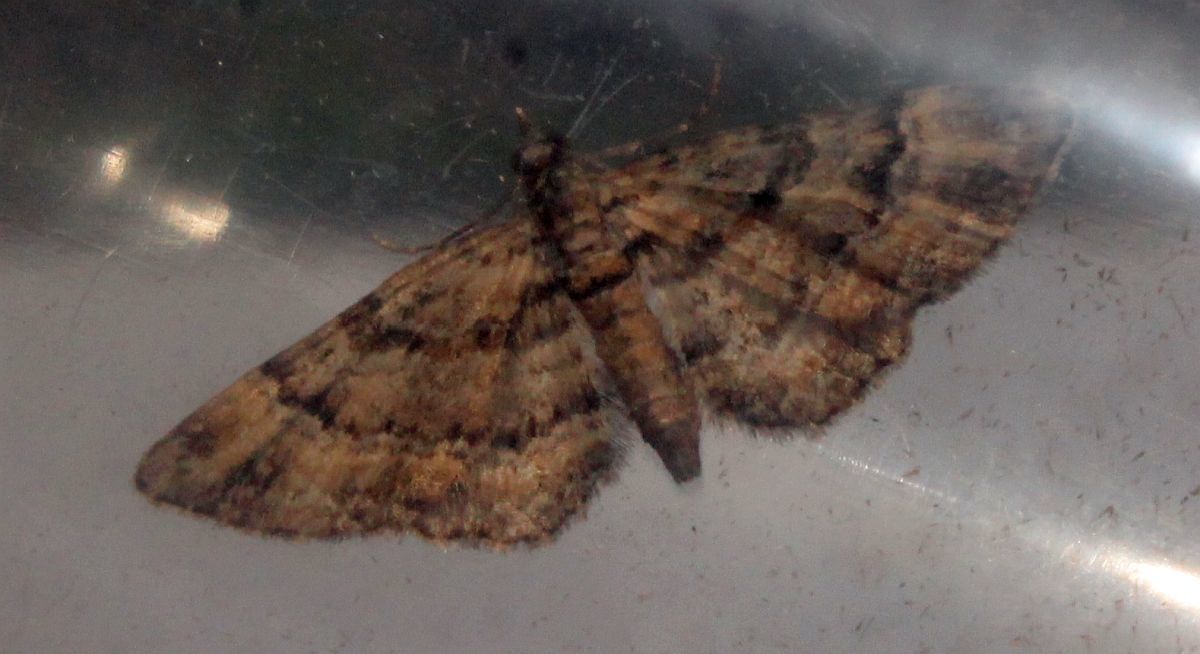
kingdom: Animalia
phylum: Arthropoda
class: Insecta
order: Lepidoptera
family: Geometridae
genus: Gymnoscelis
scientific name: Gymnoscelis rufifasciata
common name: Double-striped pug
